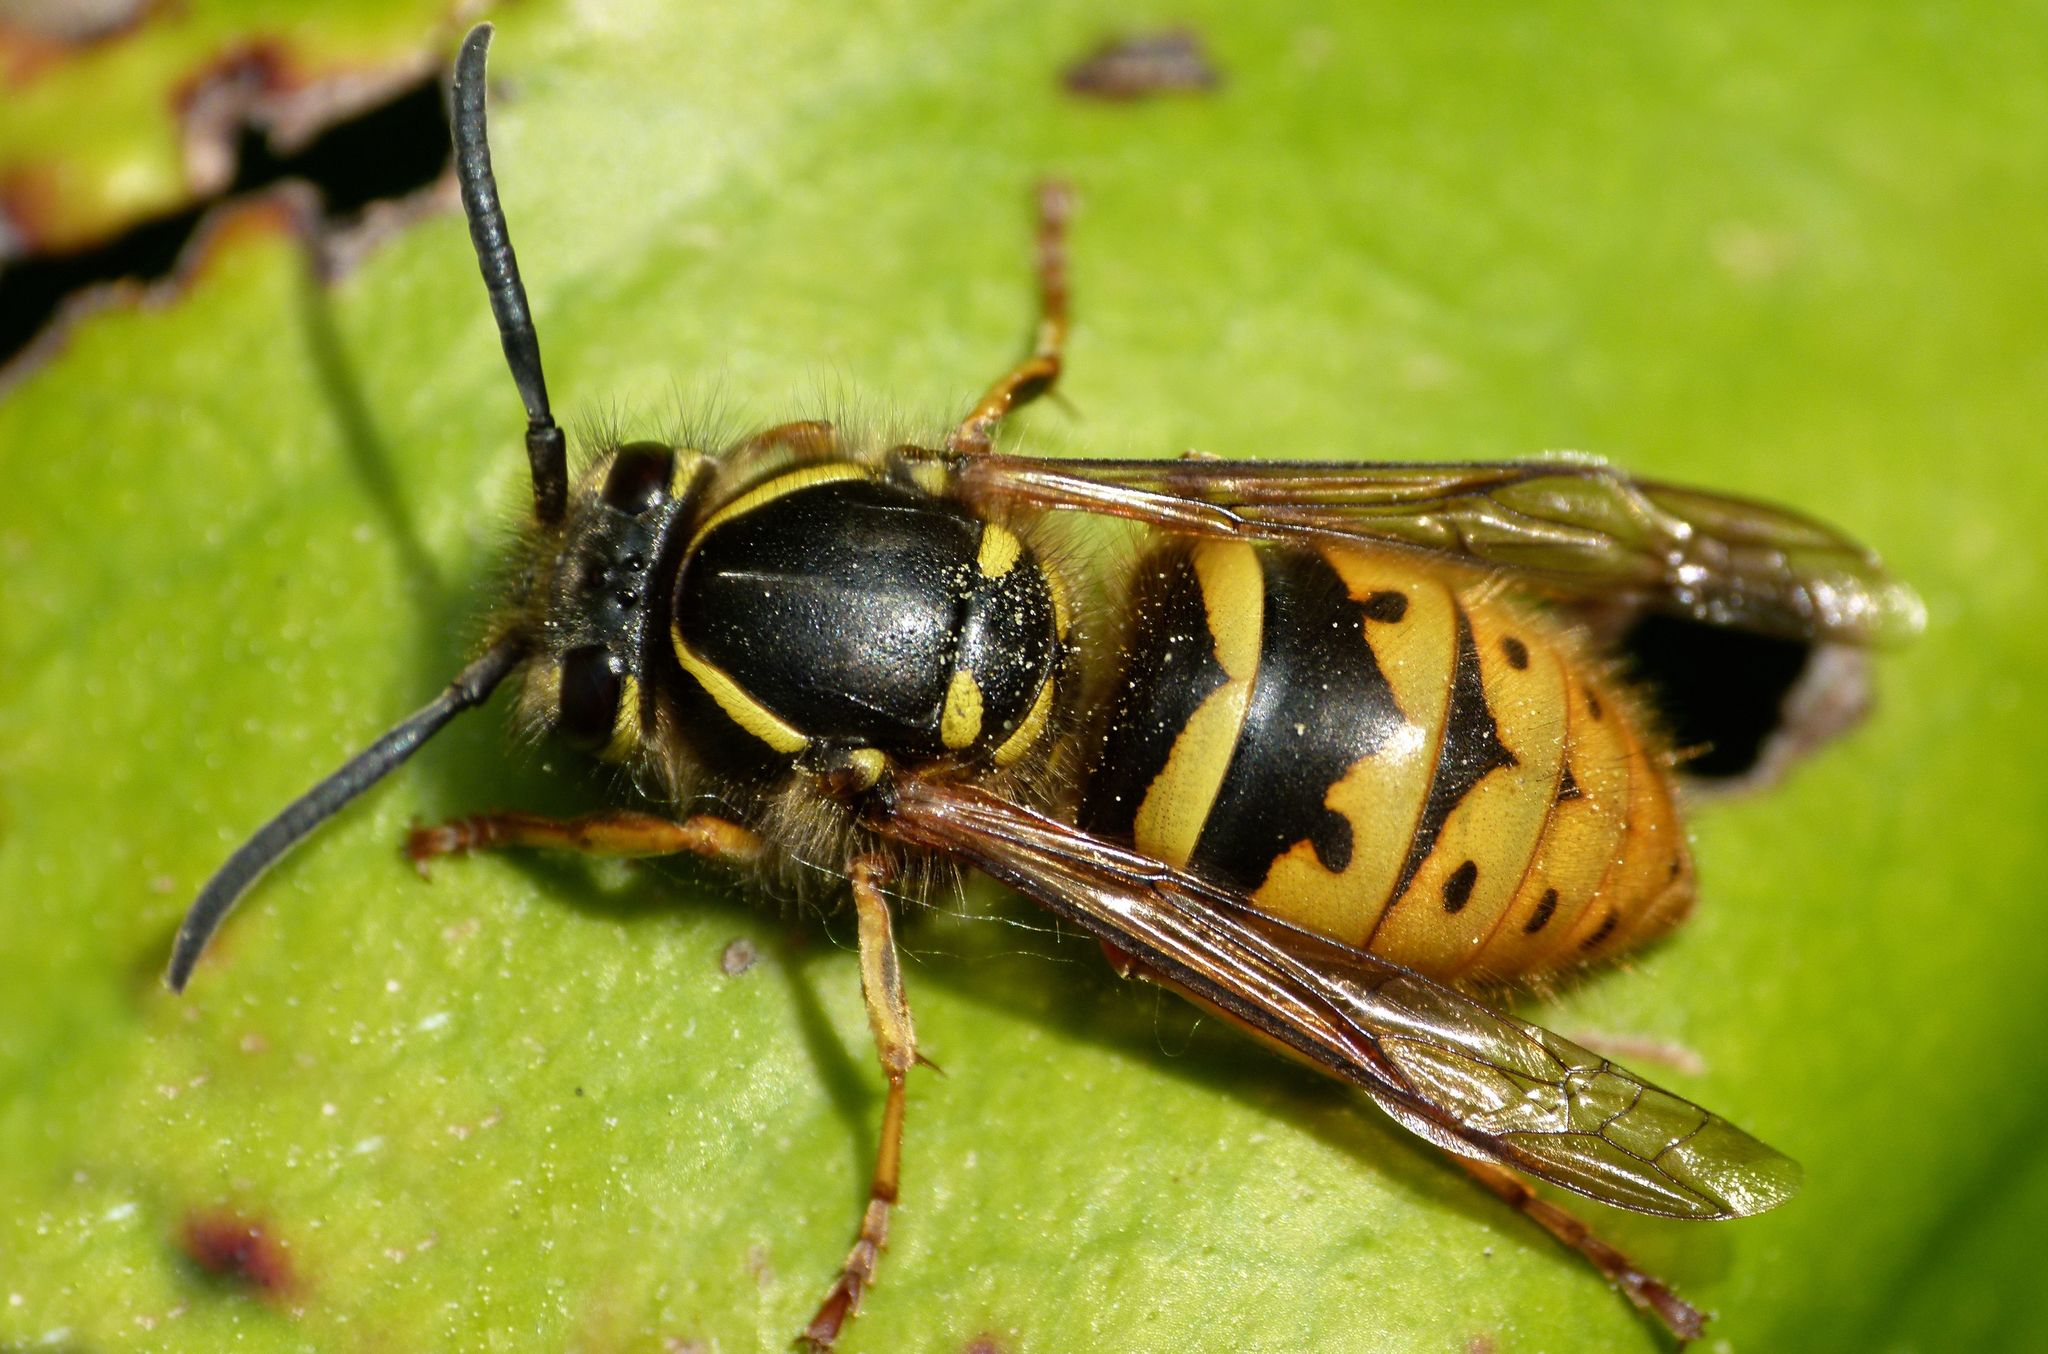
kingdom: Animalia
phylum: Arthropoda
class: Insecta
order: Hymenoptera
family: Vespidae
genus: Vespula
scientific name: Vespula vulgaris
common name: Common wasp
